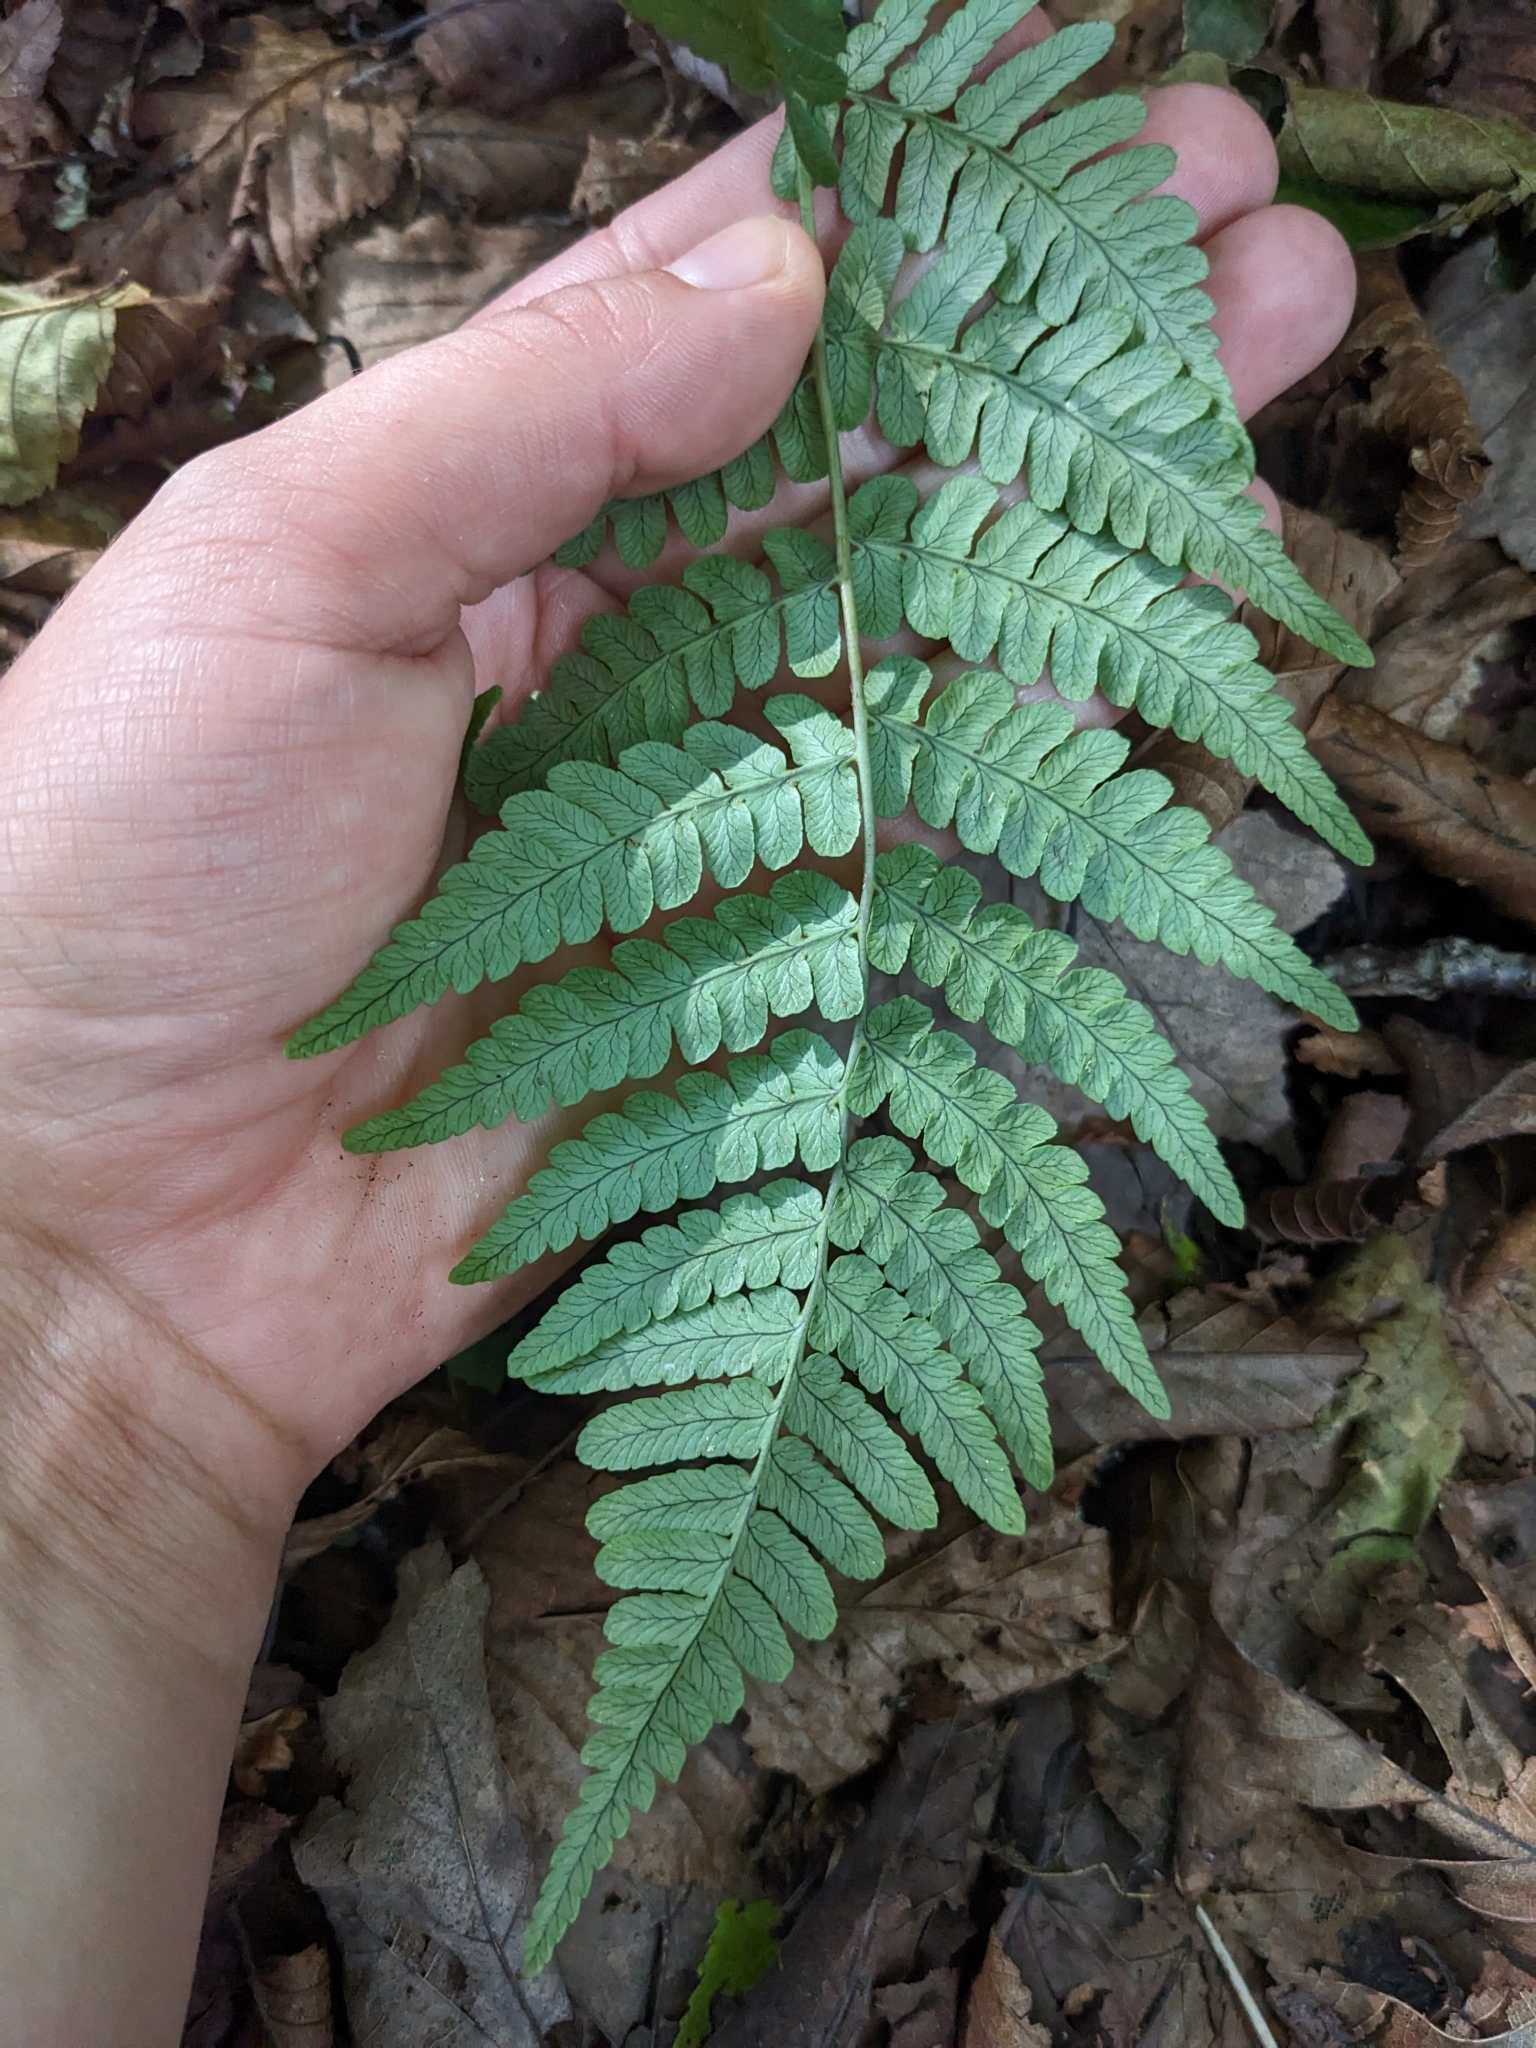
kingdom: Plantae
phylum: Tracheophyta
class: Polypodiopsida
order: Polypodiales
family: Dryopteridaceae
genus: Dryopteris
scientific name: Dryopteris marginalis
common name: Marginal wood fern
